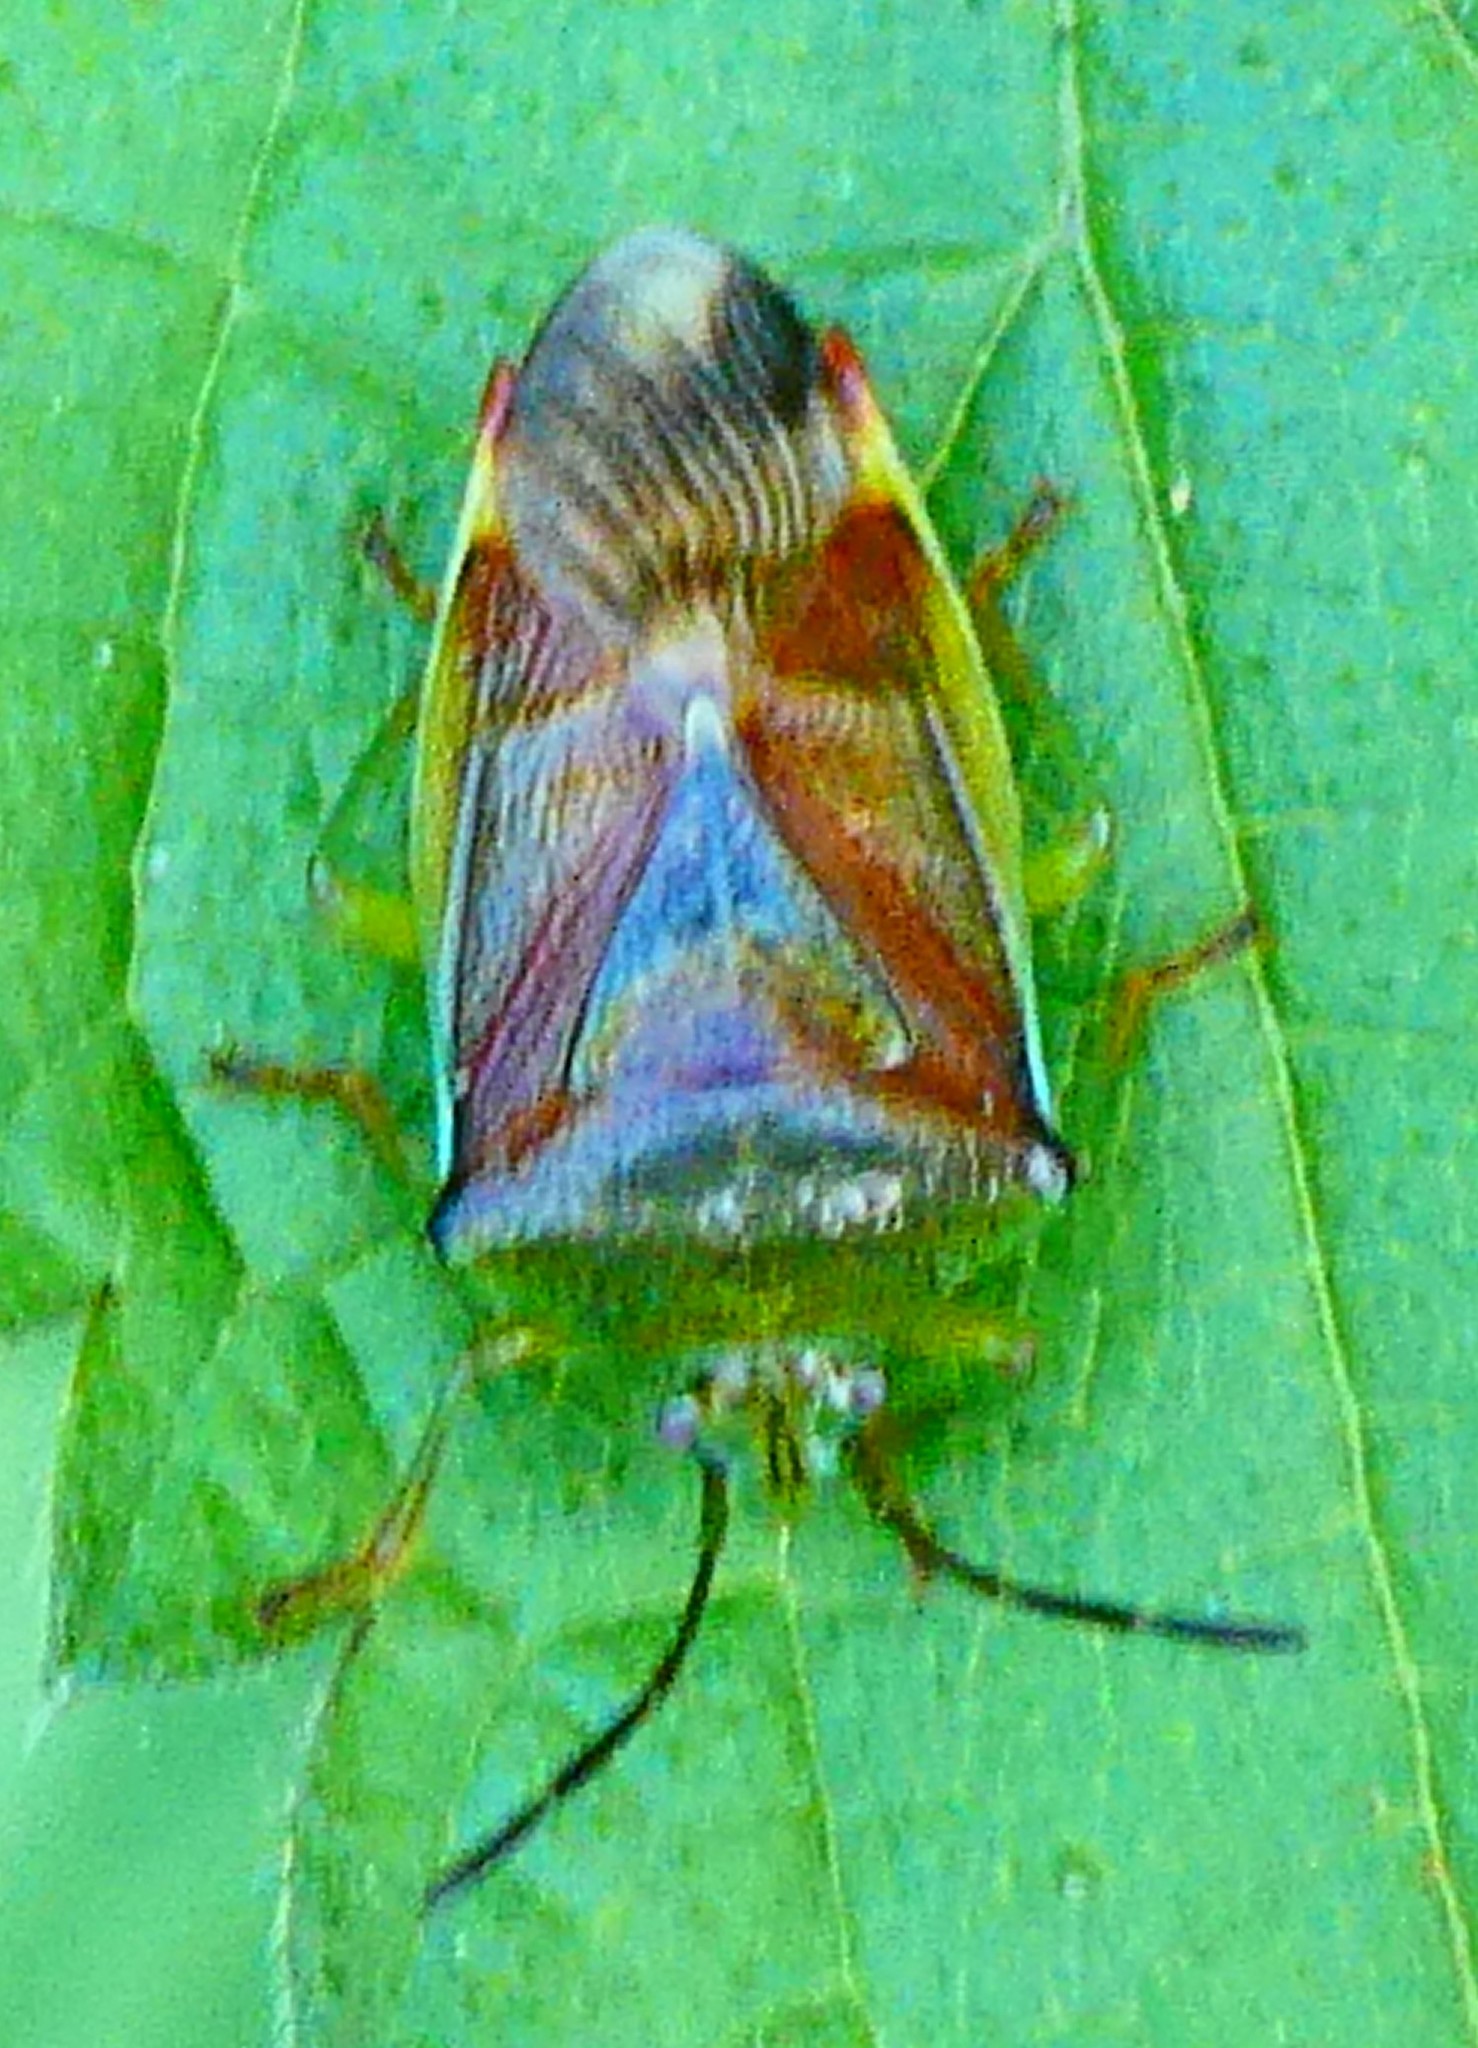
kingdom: Animalia
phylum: Arthropoda
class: Insecta
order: Hemiptera
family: Acanthosomatidae
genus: Elasmostethus
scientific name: Elasmostethus interstinctus
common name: Birch shieldbug
